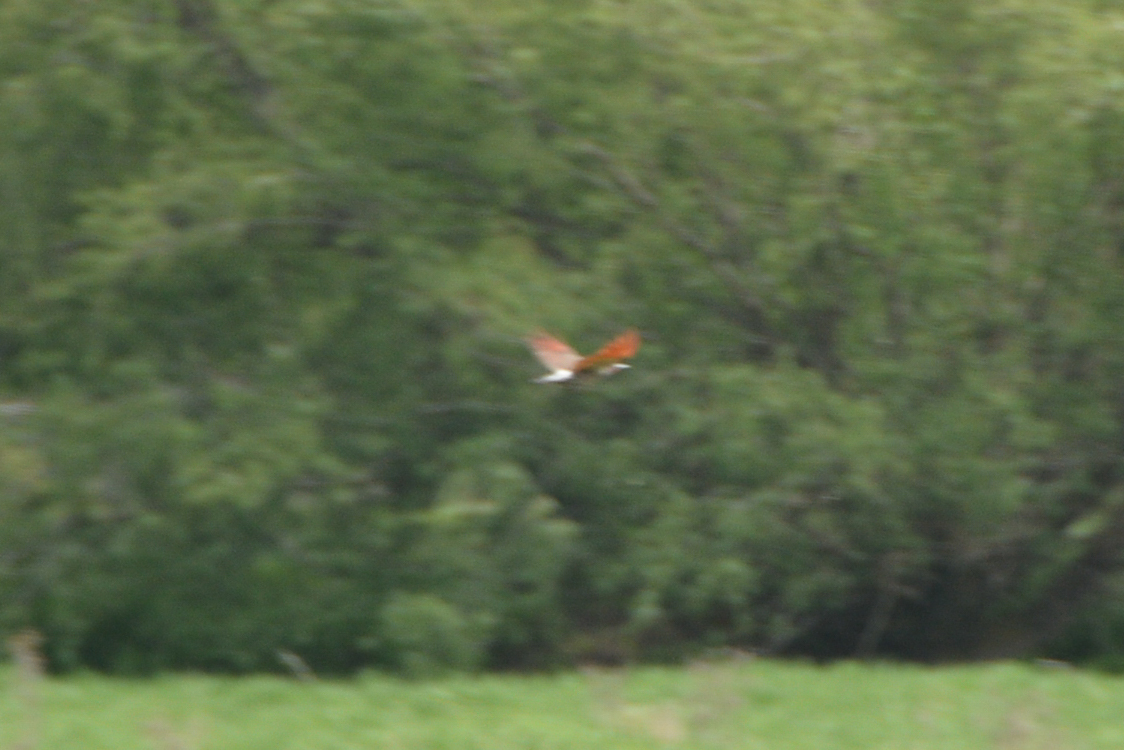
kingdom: Animalia
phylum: Chordata
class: Aves
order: Piciformes
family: Picidae
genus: Colaptes
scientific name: Colaptes auratus
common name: Northern flicker
